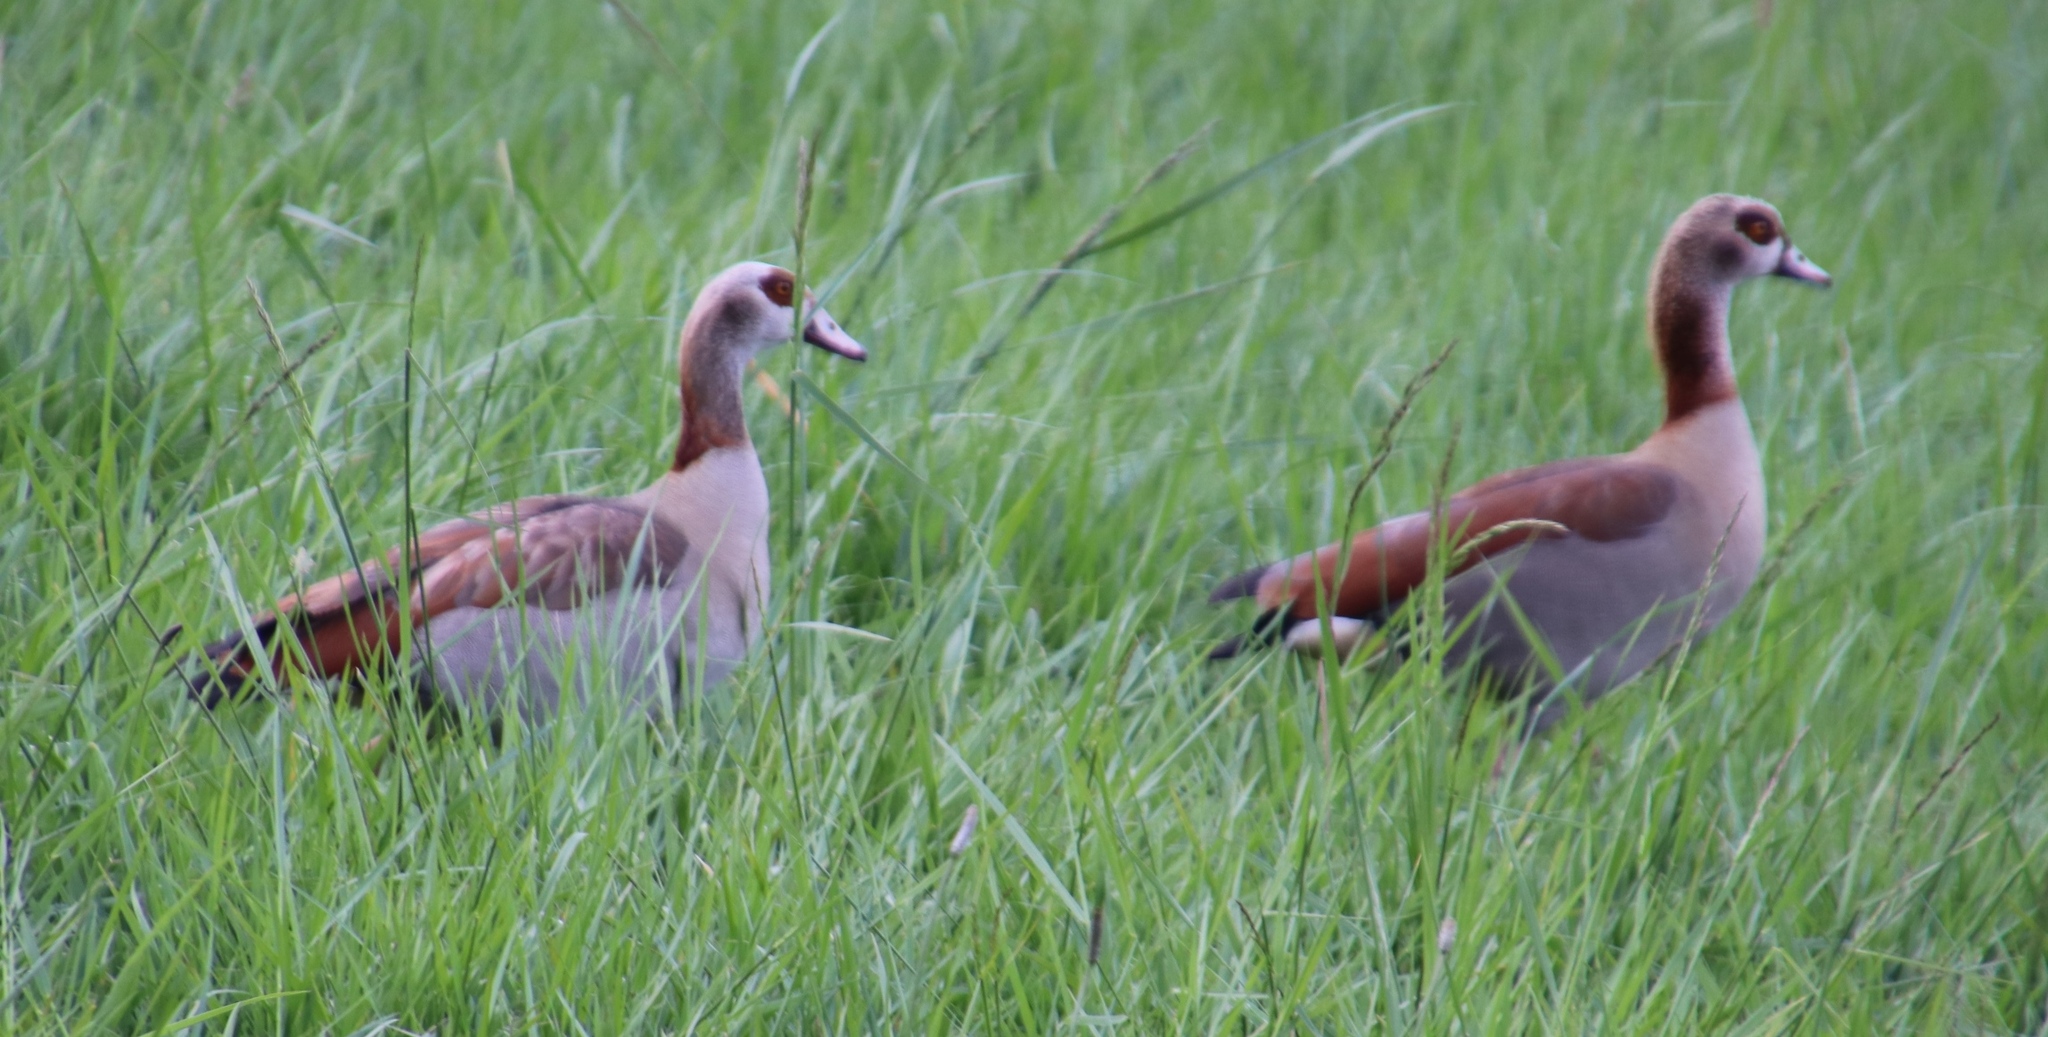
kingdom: Animalia
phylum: Chordata
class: Aves
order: Anseriformes
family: Anatidae
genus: Alopochen
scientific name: Alopochen aegyptiaca
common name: Egyptian goose
